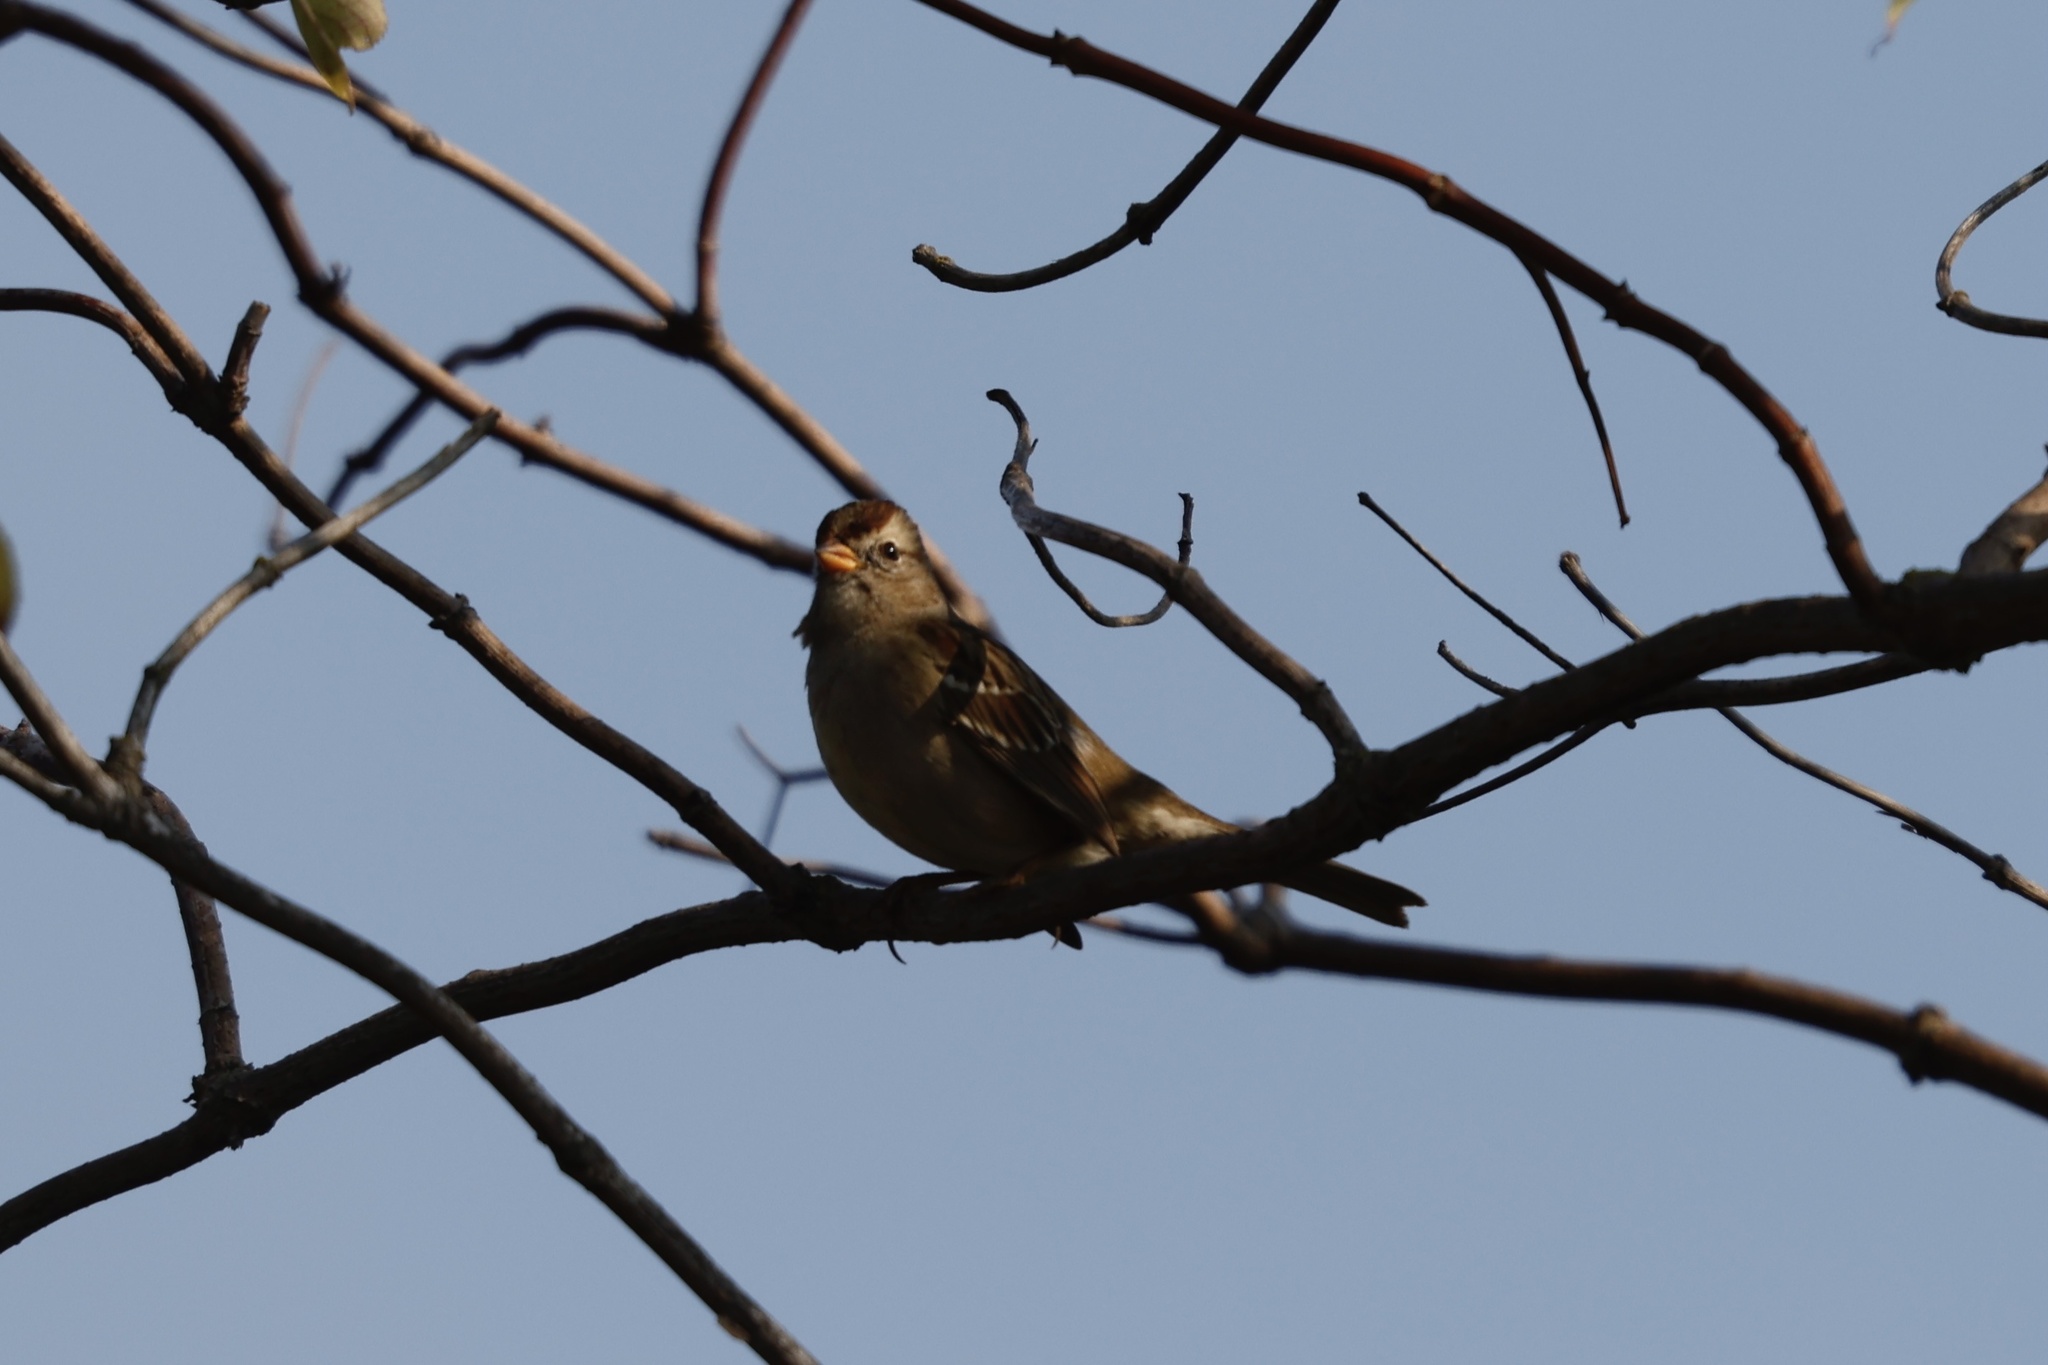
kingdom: Animalia
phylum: Chordata
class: Aves
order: Passeriformes
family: Passerellidae
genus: Zonotrichia
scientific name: Zonotrichia leucophrys
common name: White-crowned sparrow
